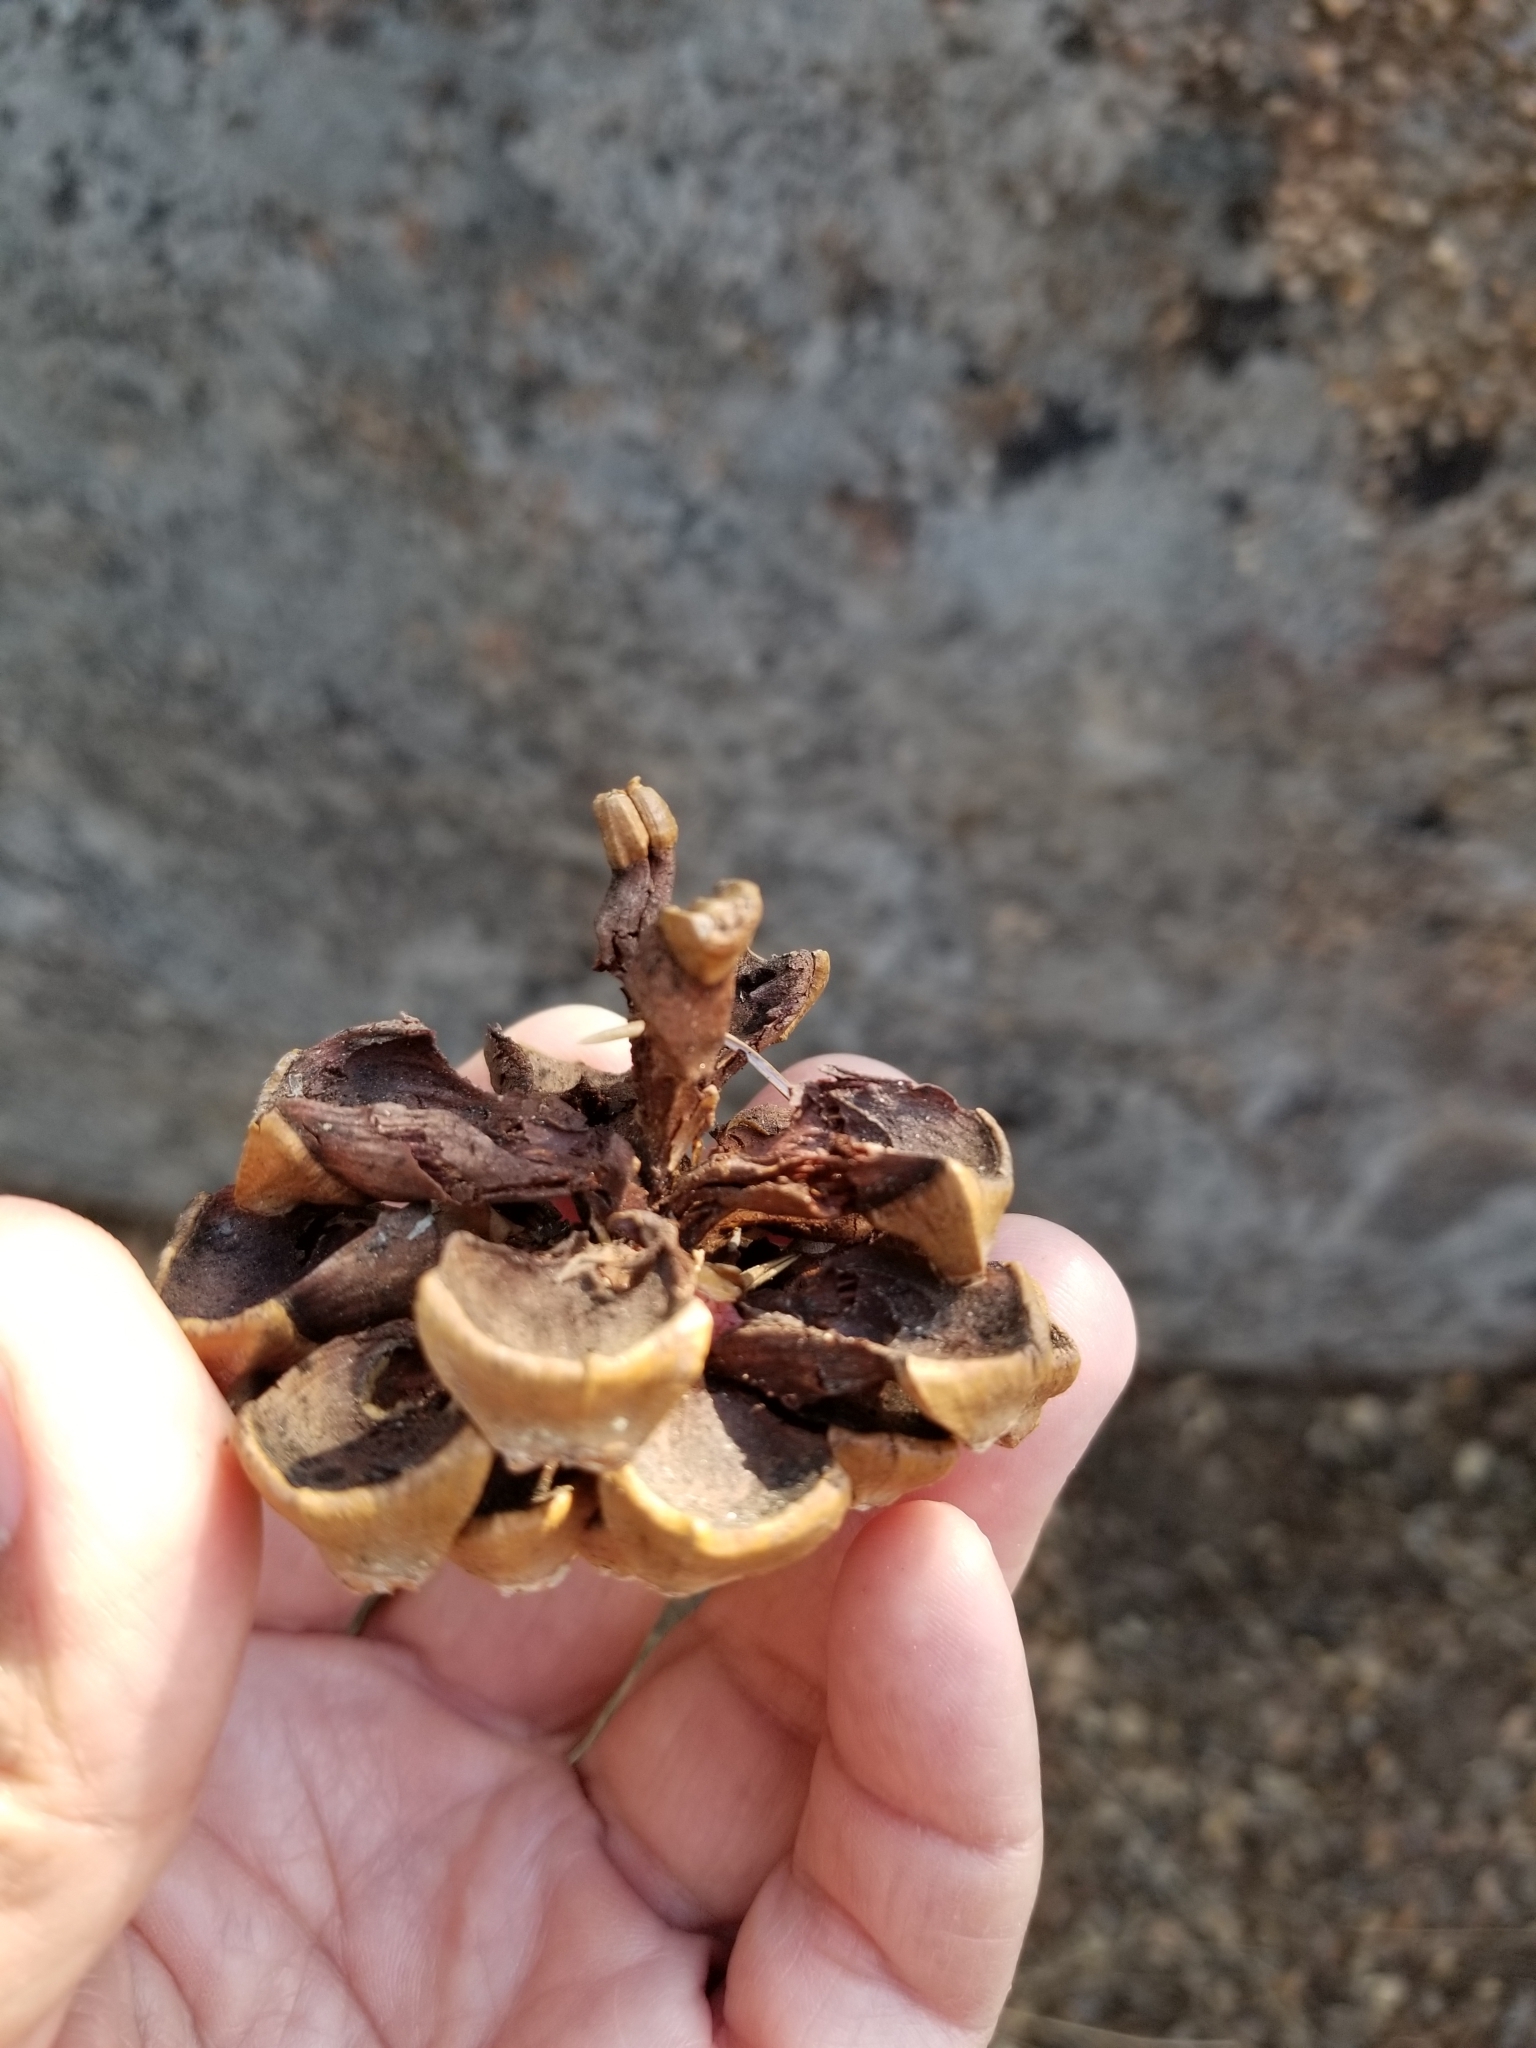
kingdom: Plantae
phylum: Tracheophyta
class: Pinopsida
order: Pinales
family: Pinaceae
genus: Pinus
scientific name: Pinus quadrifolia
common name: Parry pinyon
